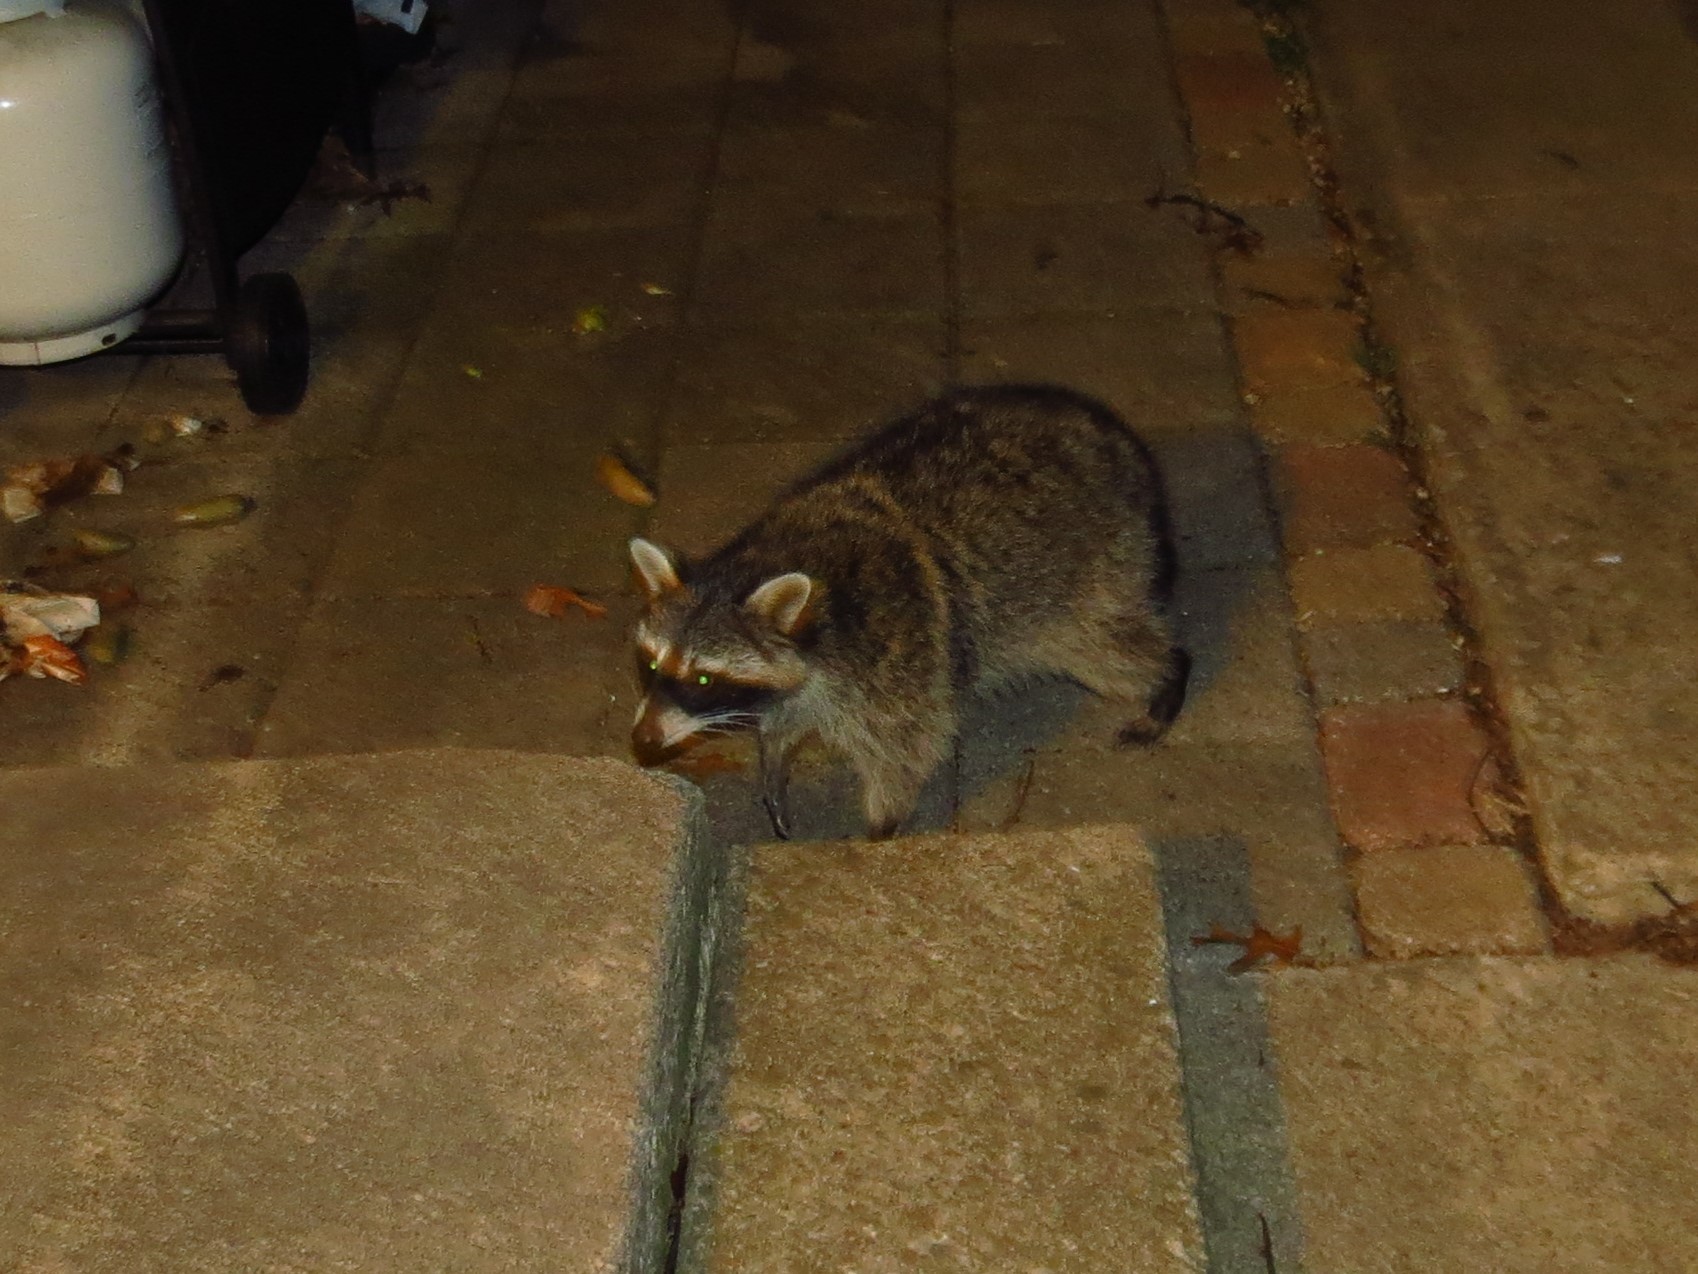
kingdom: Animalia
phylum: Chordata
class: Mammalia
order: Carnivora
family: Procyonidae
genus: Procyon
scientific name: Procyon lotor
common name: Raccoon
